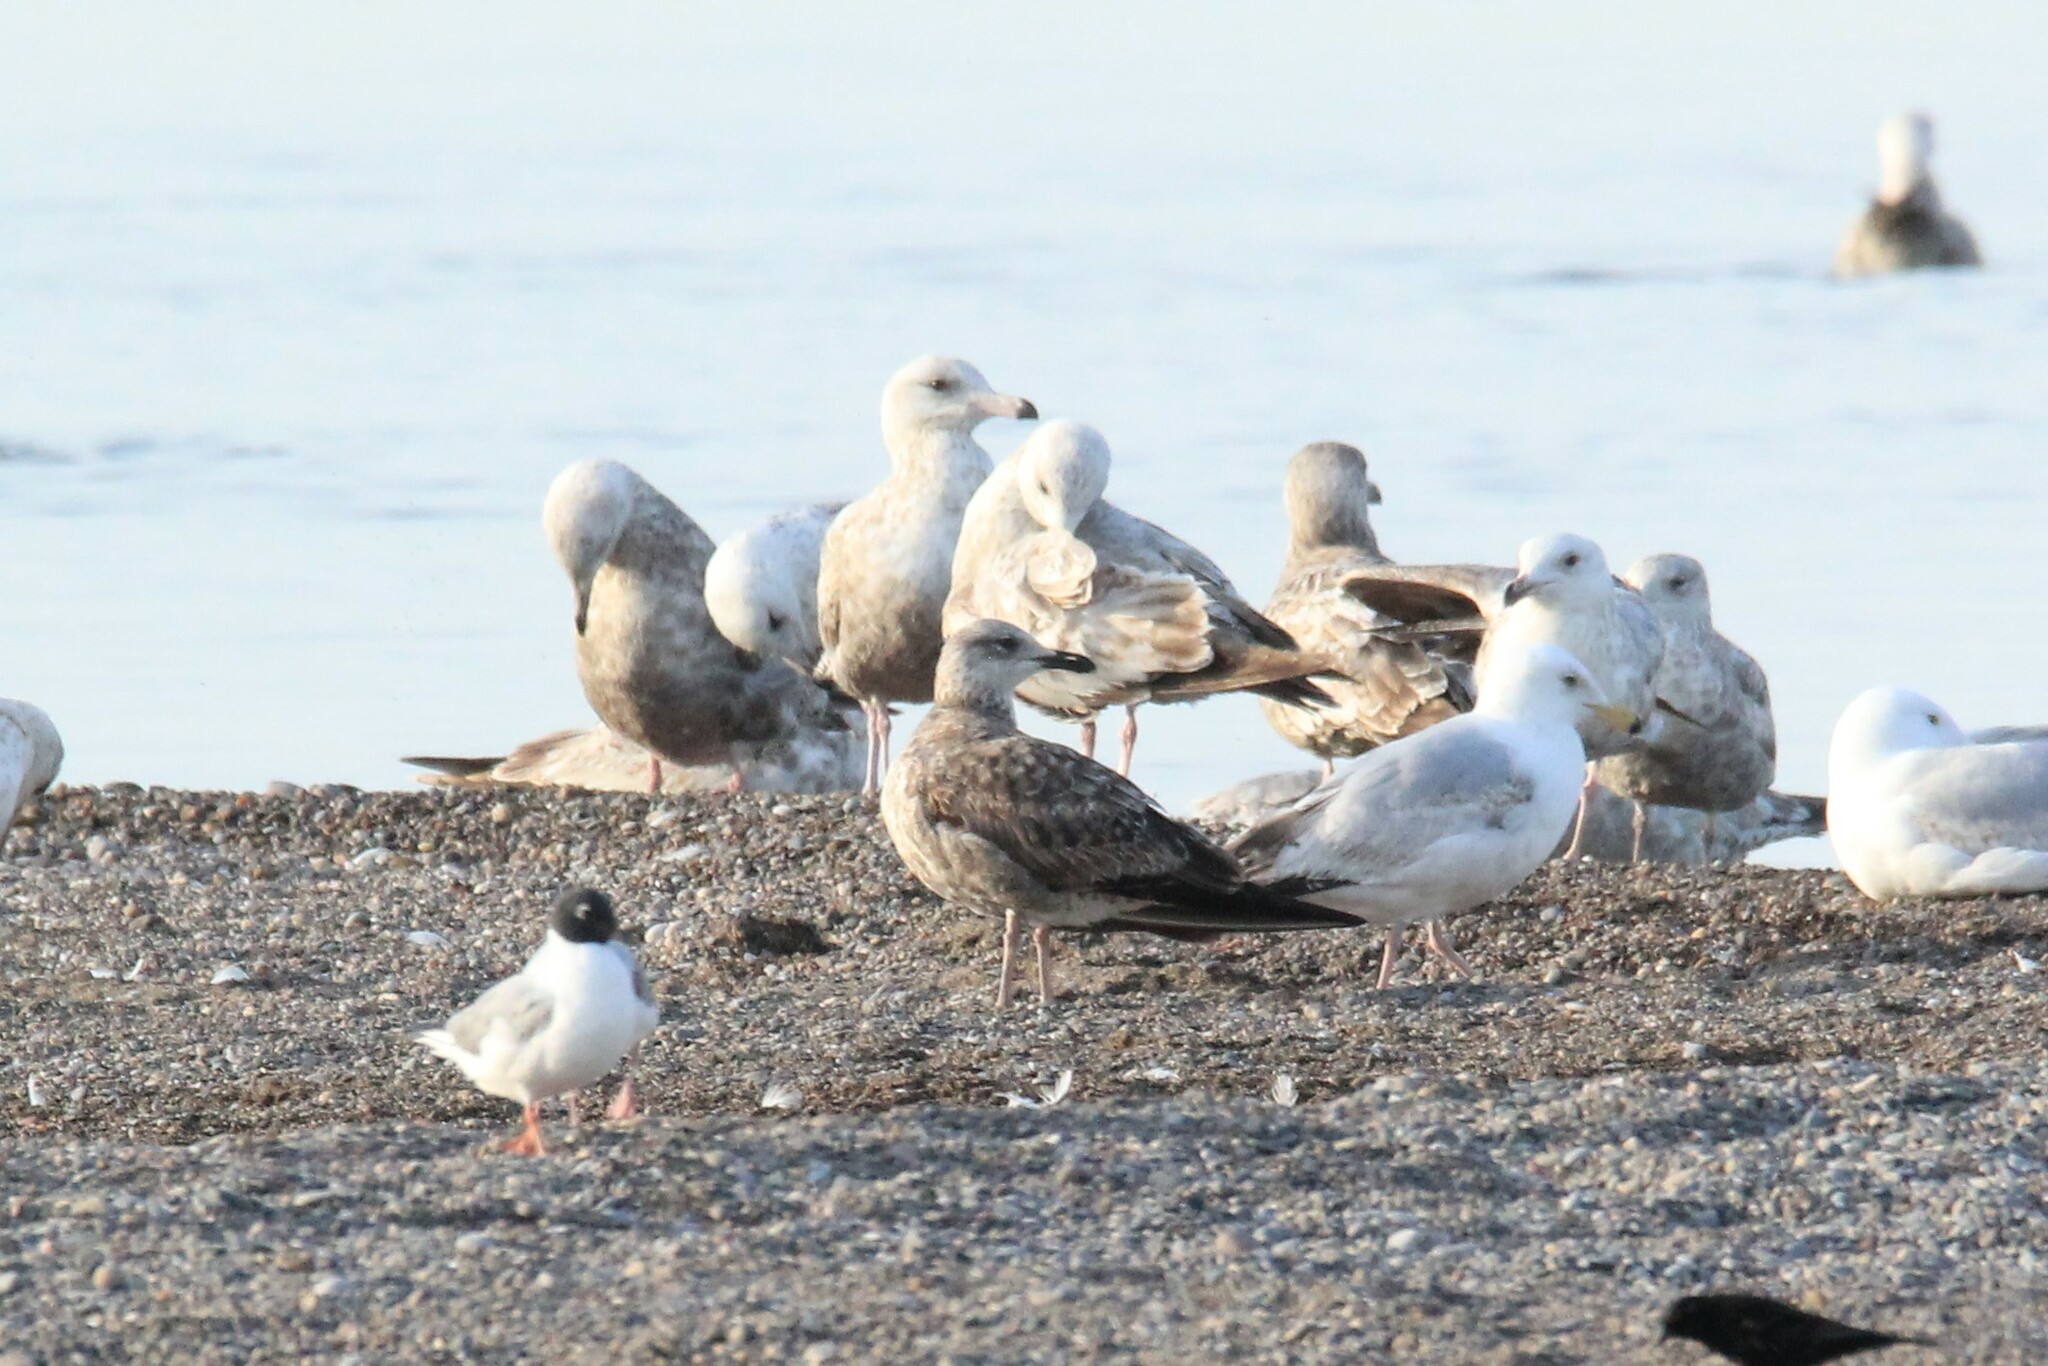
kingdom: Animalia
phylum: Chordata
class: Aves
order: Charadriiformes
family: Laridae
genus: Larus
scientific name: Larus fuscus
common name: Lesser black-backed gull
